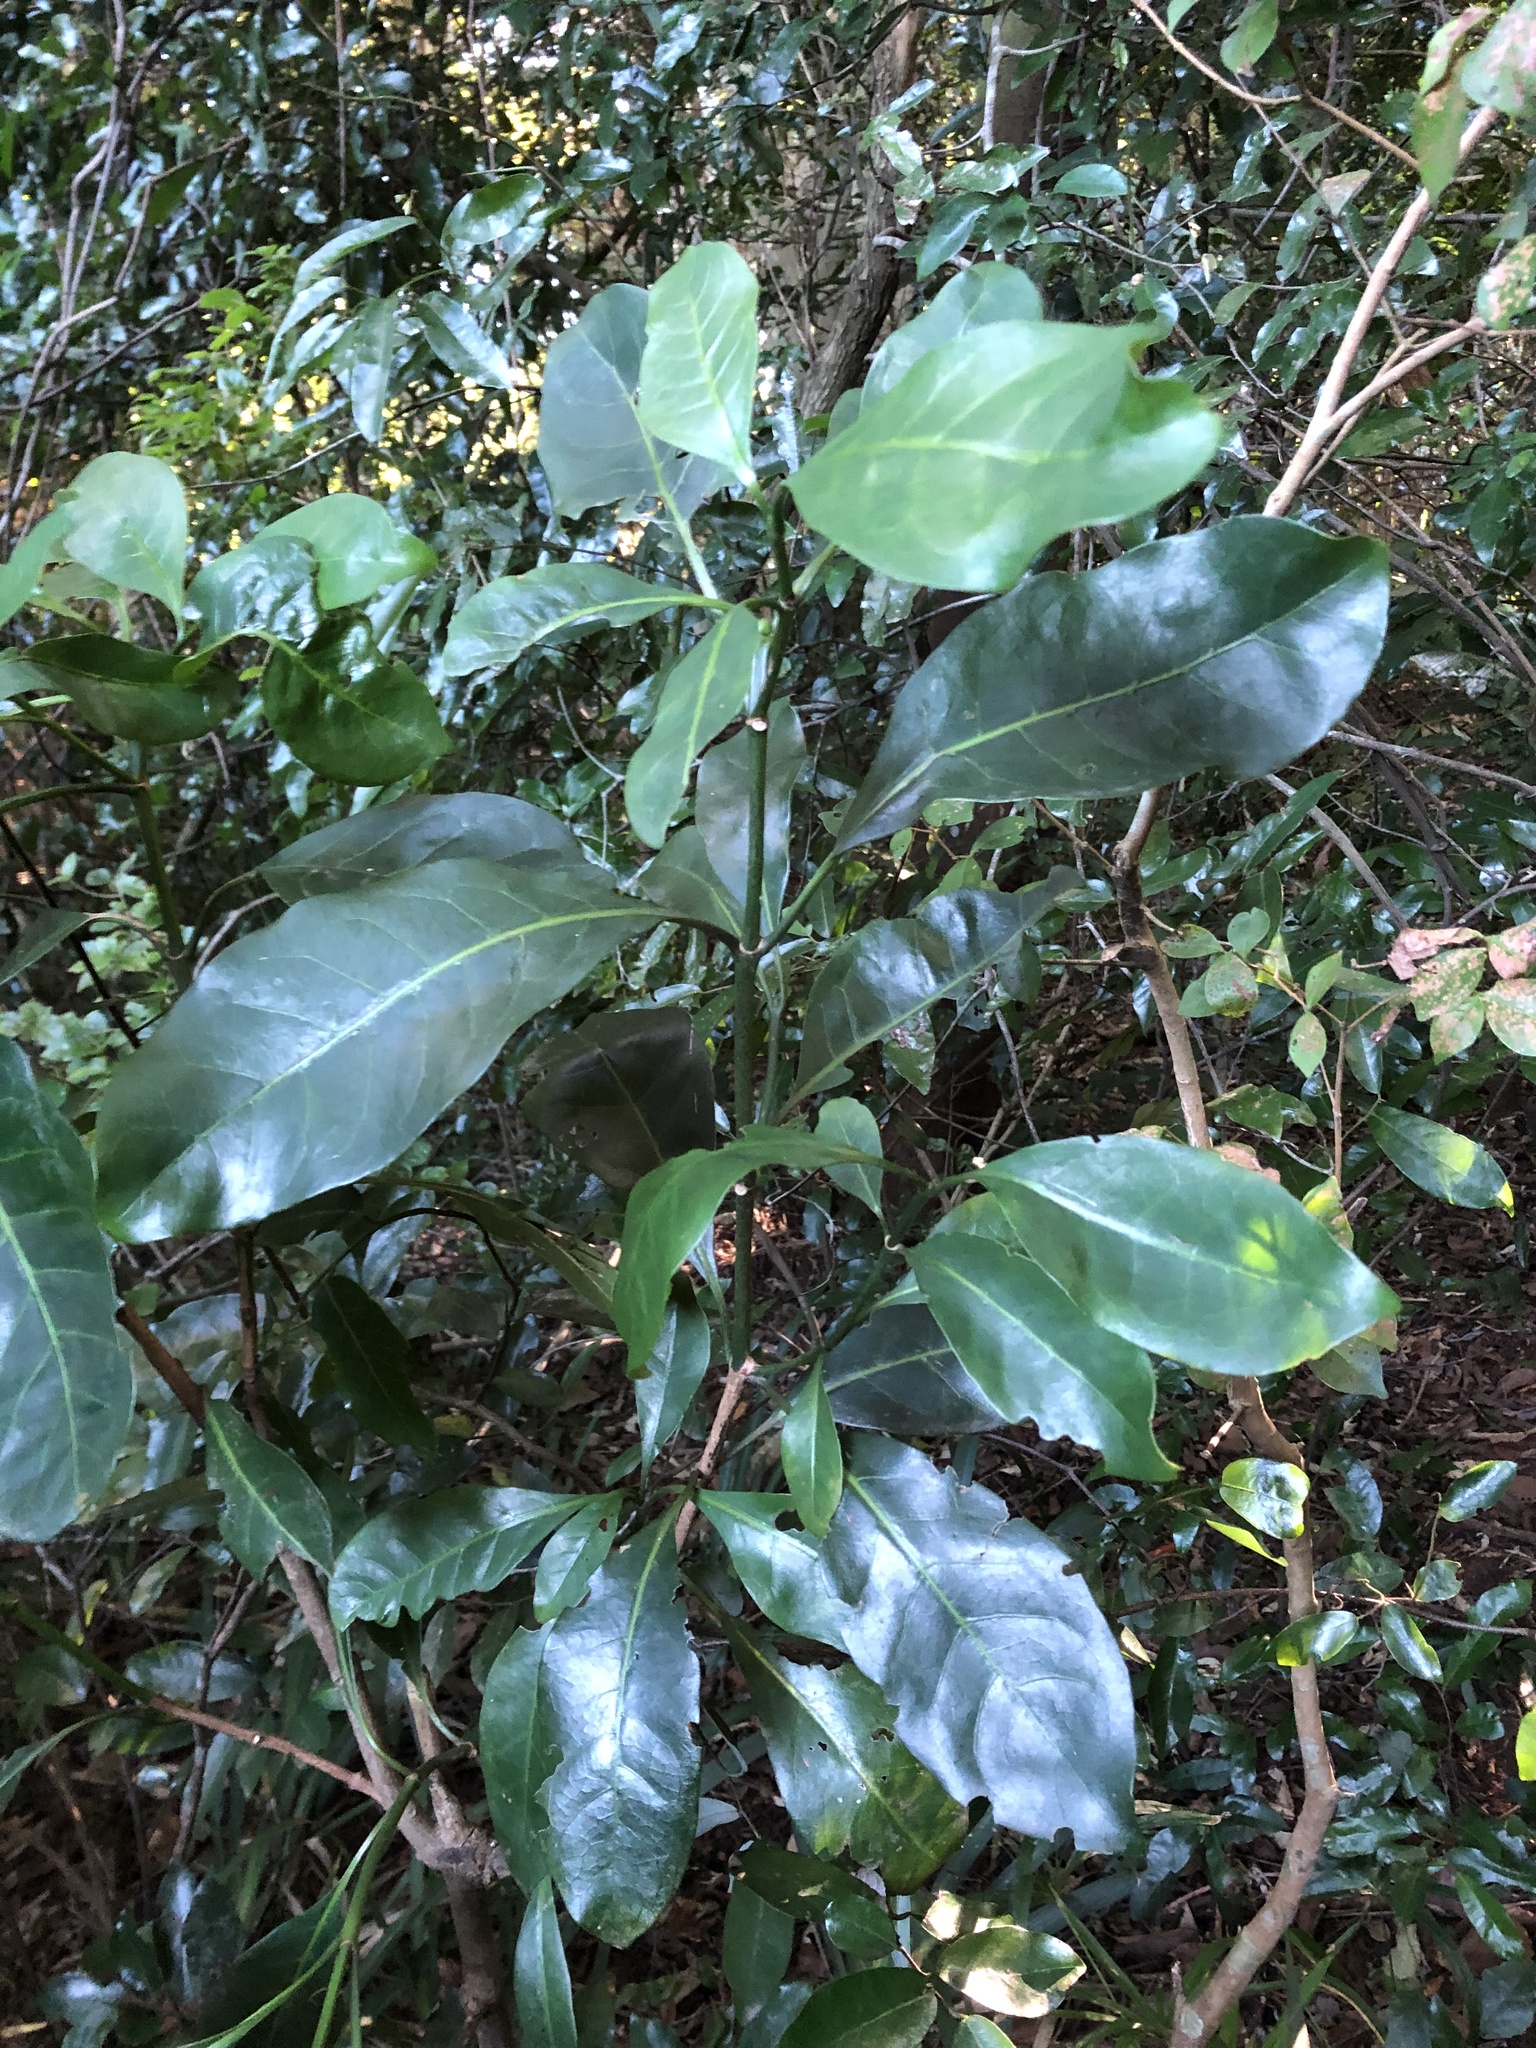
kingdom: Plantae
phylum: Tracheophyta
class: Magnoliopsida
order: Gentianales
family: Rubiaceae
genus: Psychotria
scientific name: Psychotria capensis
